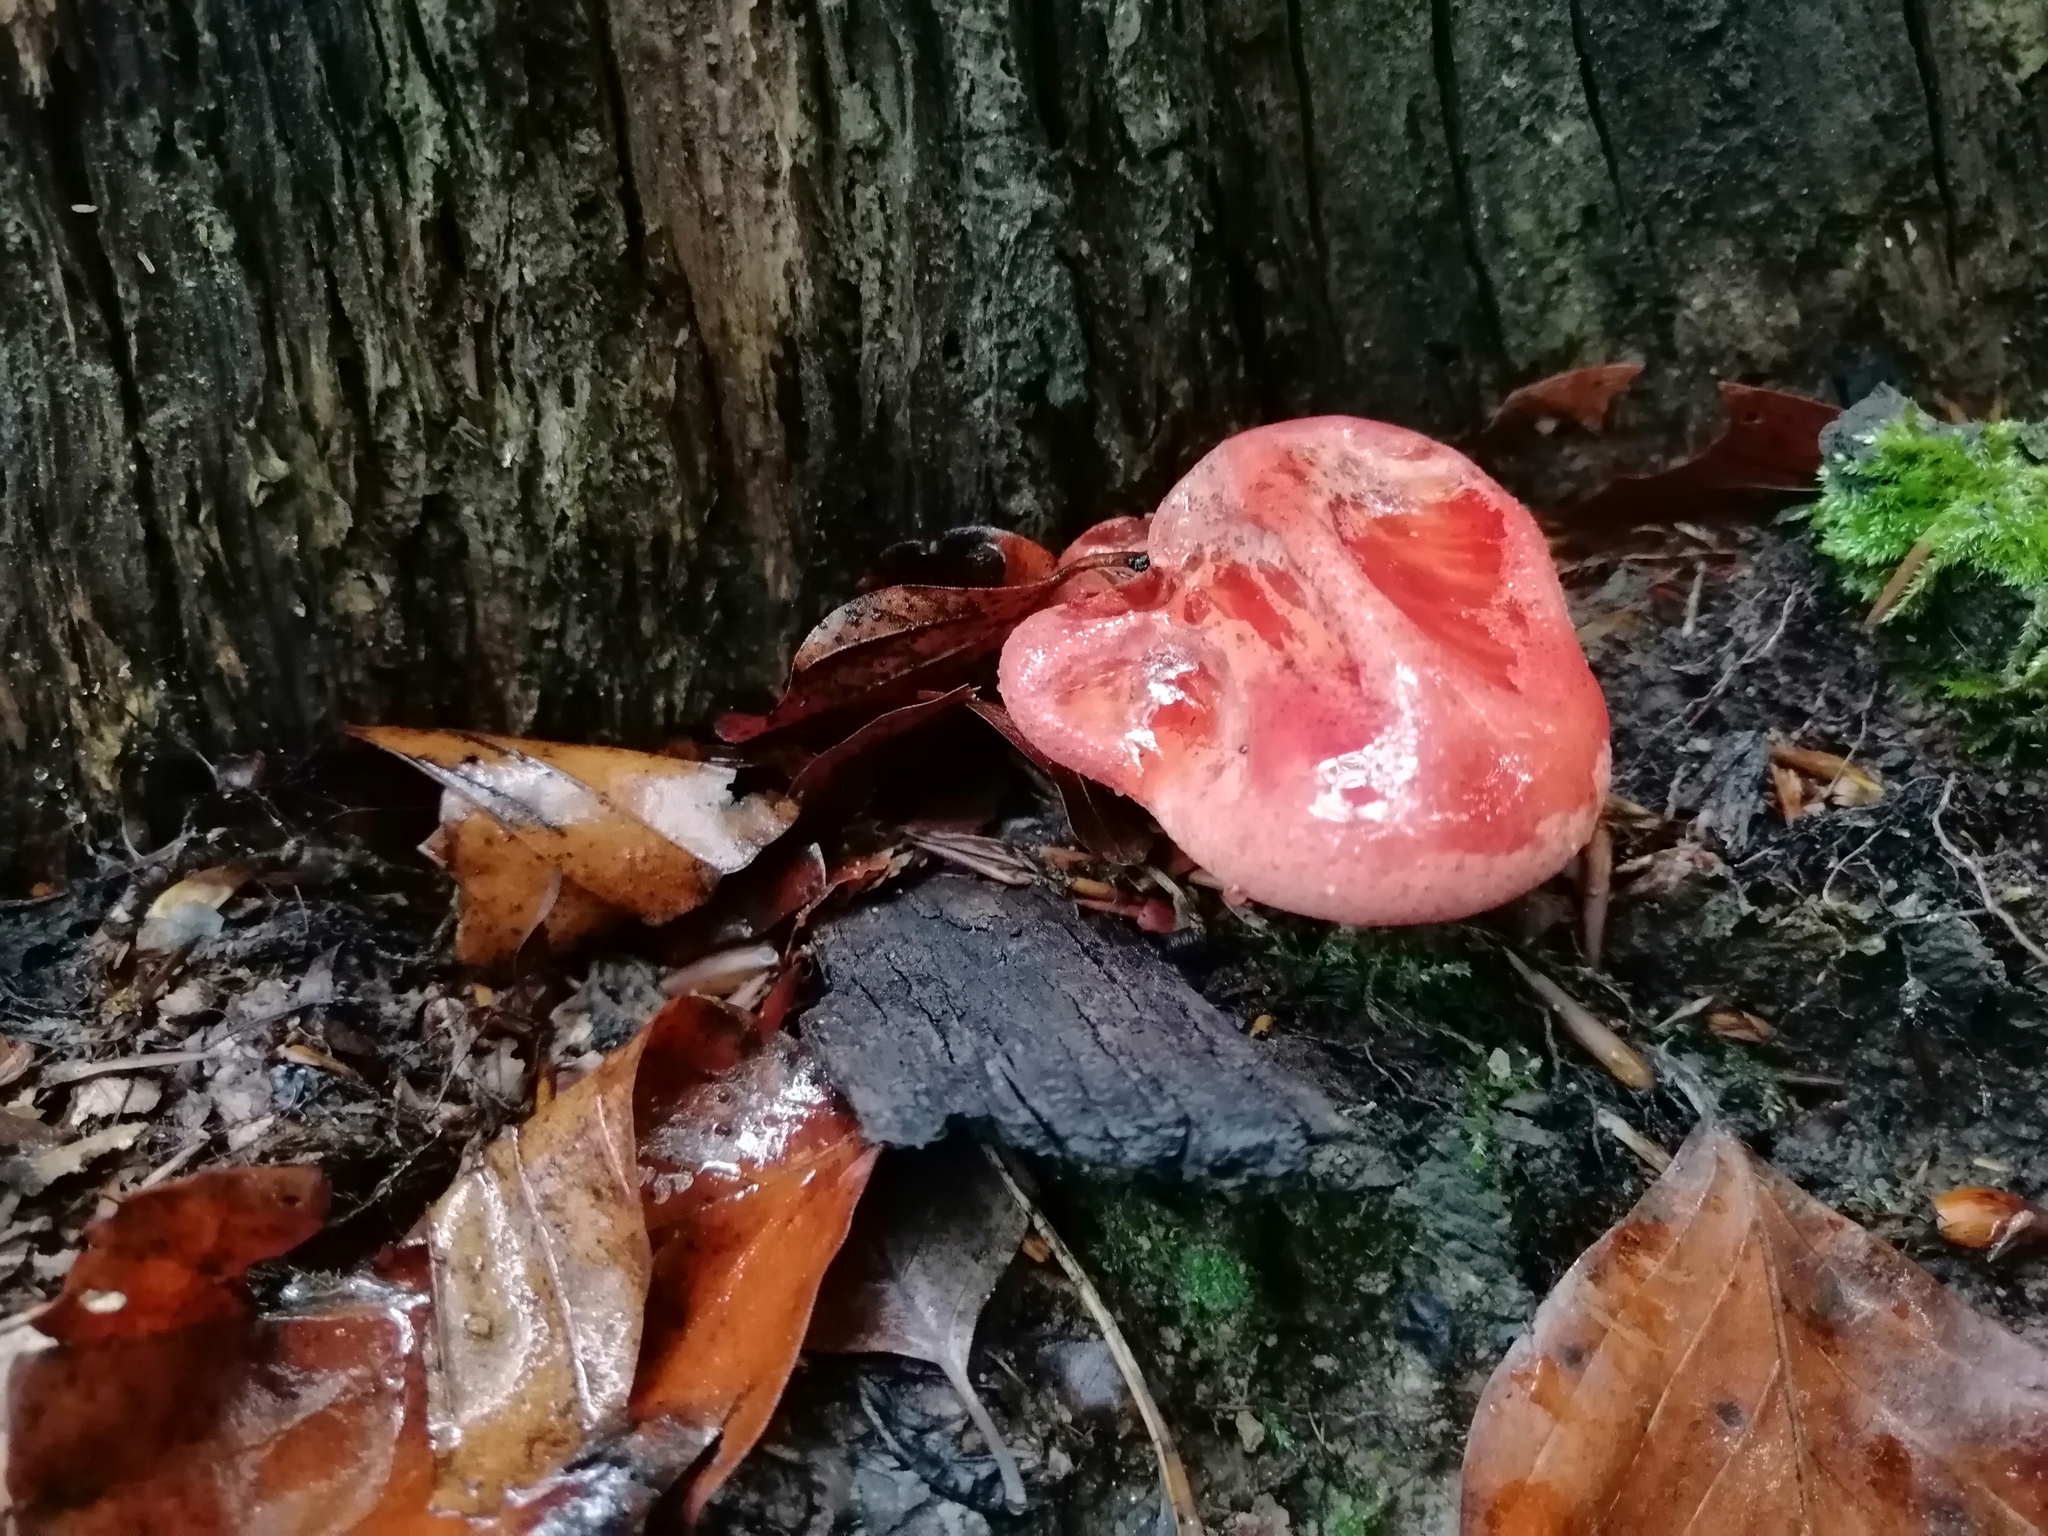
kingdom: Fungi
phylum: Basidiomycota
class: Agaricomycetes
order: Agaricales
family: Fistulinaceae
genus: Fistulina
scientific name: Fistulina hepatica
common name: Beef-steak fungus
